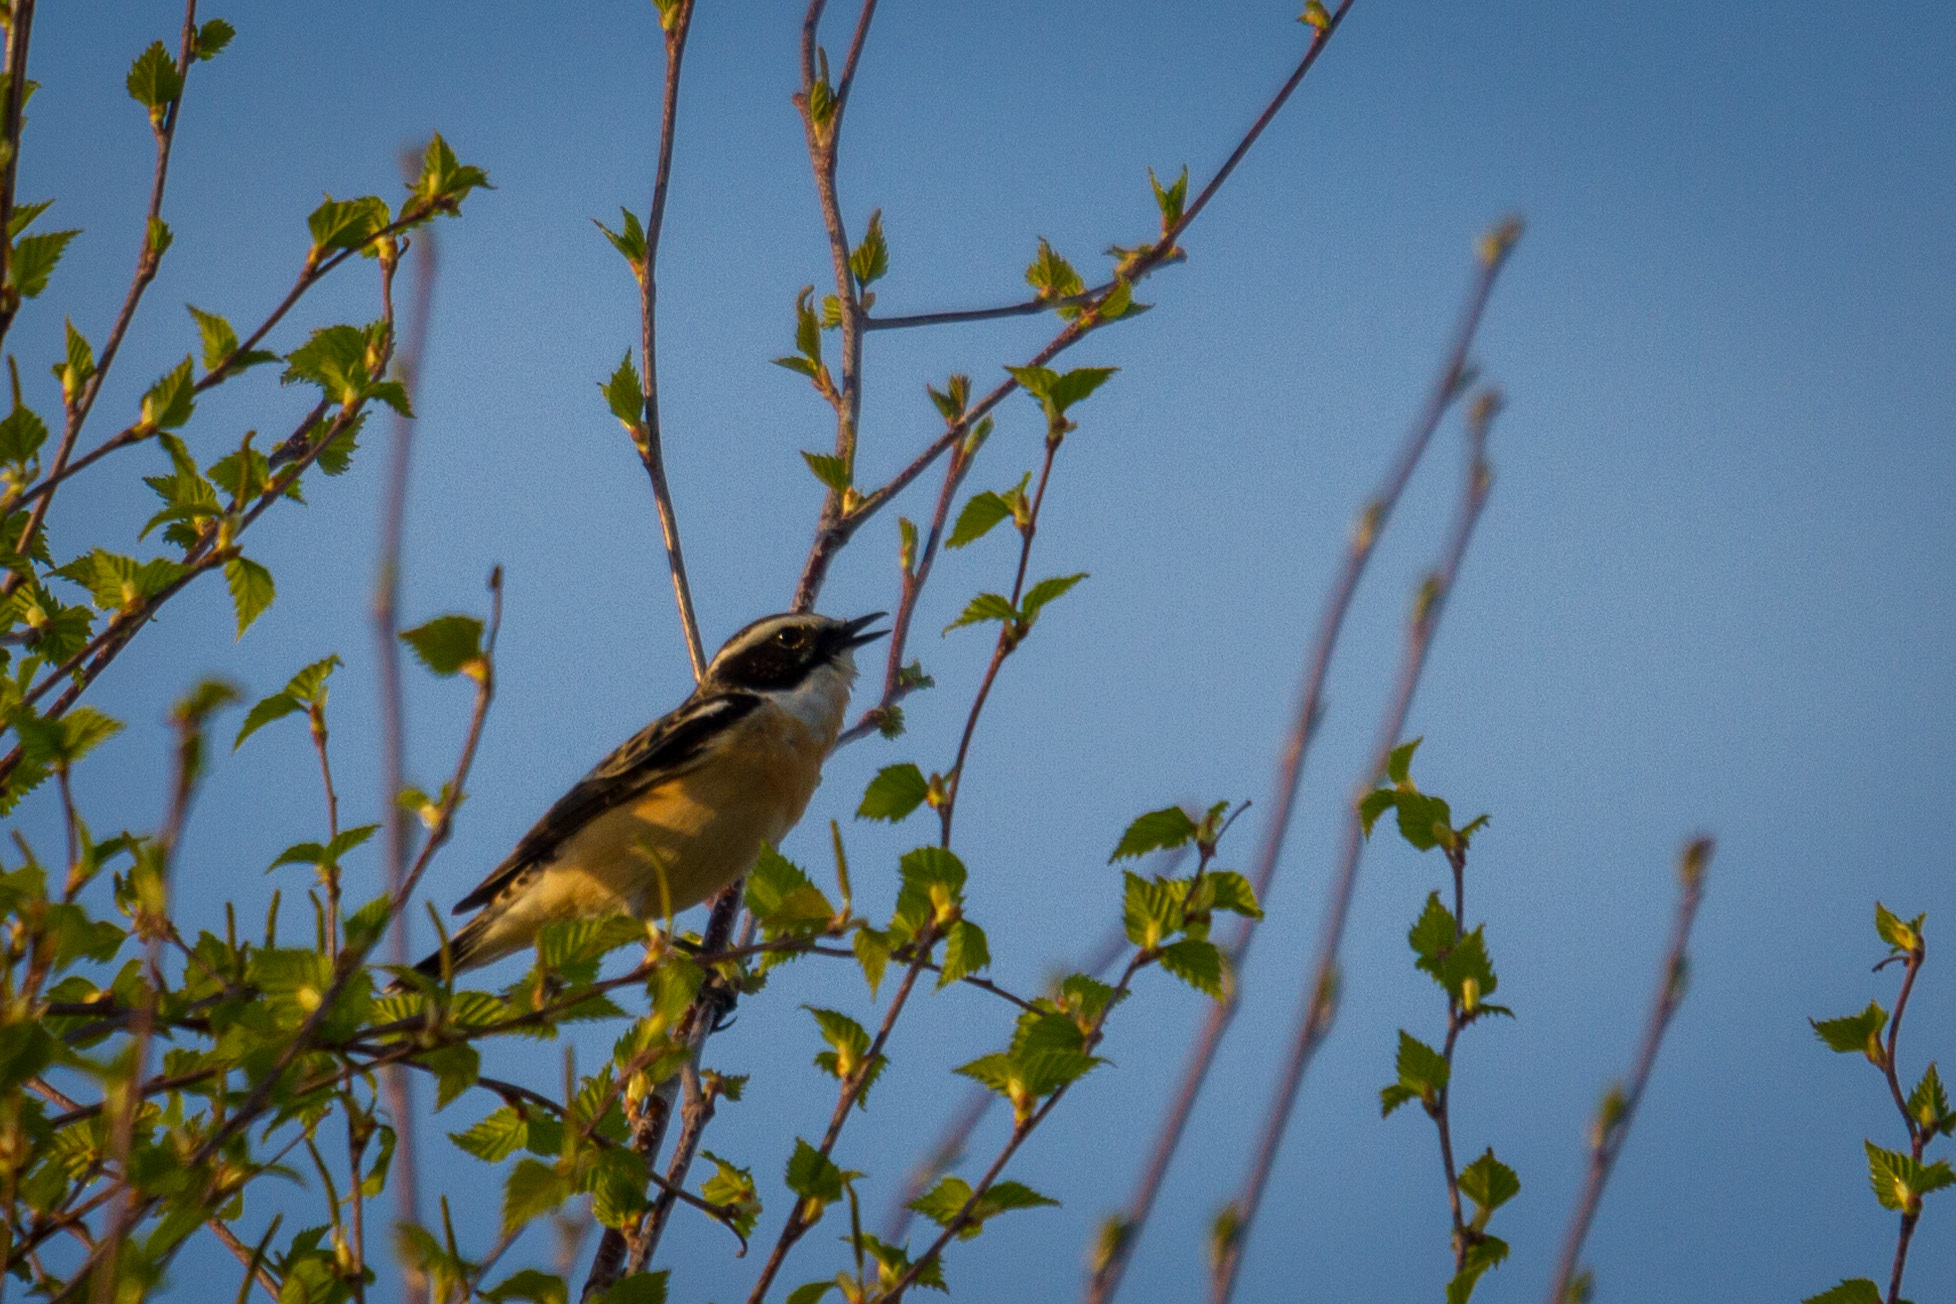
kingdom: Animalia
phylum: Chordata
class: Aves
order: Passeriformes
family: Muscicapidae
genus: Saxicola
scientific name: Saxicola rubetra
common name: Whinchat
